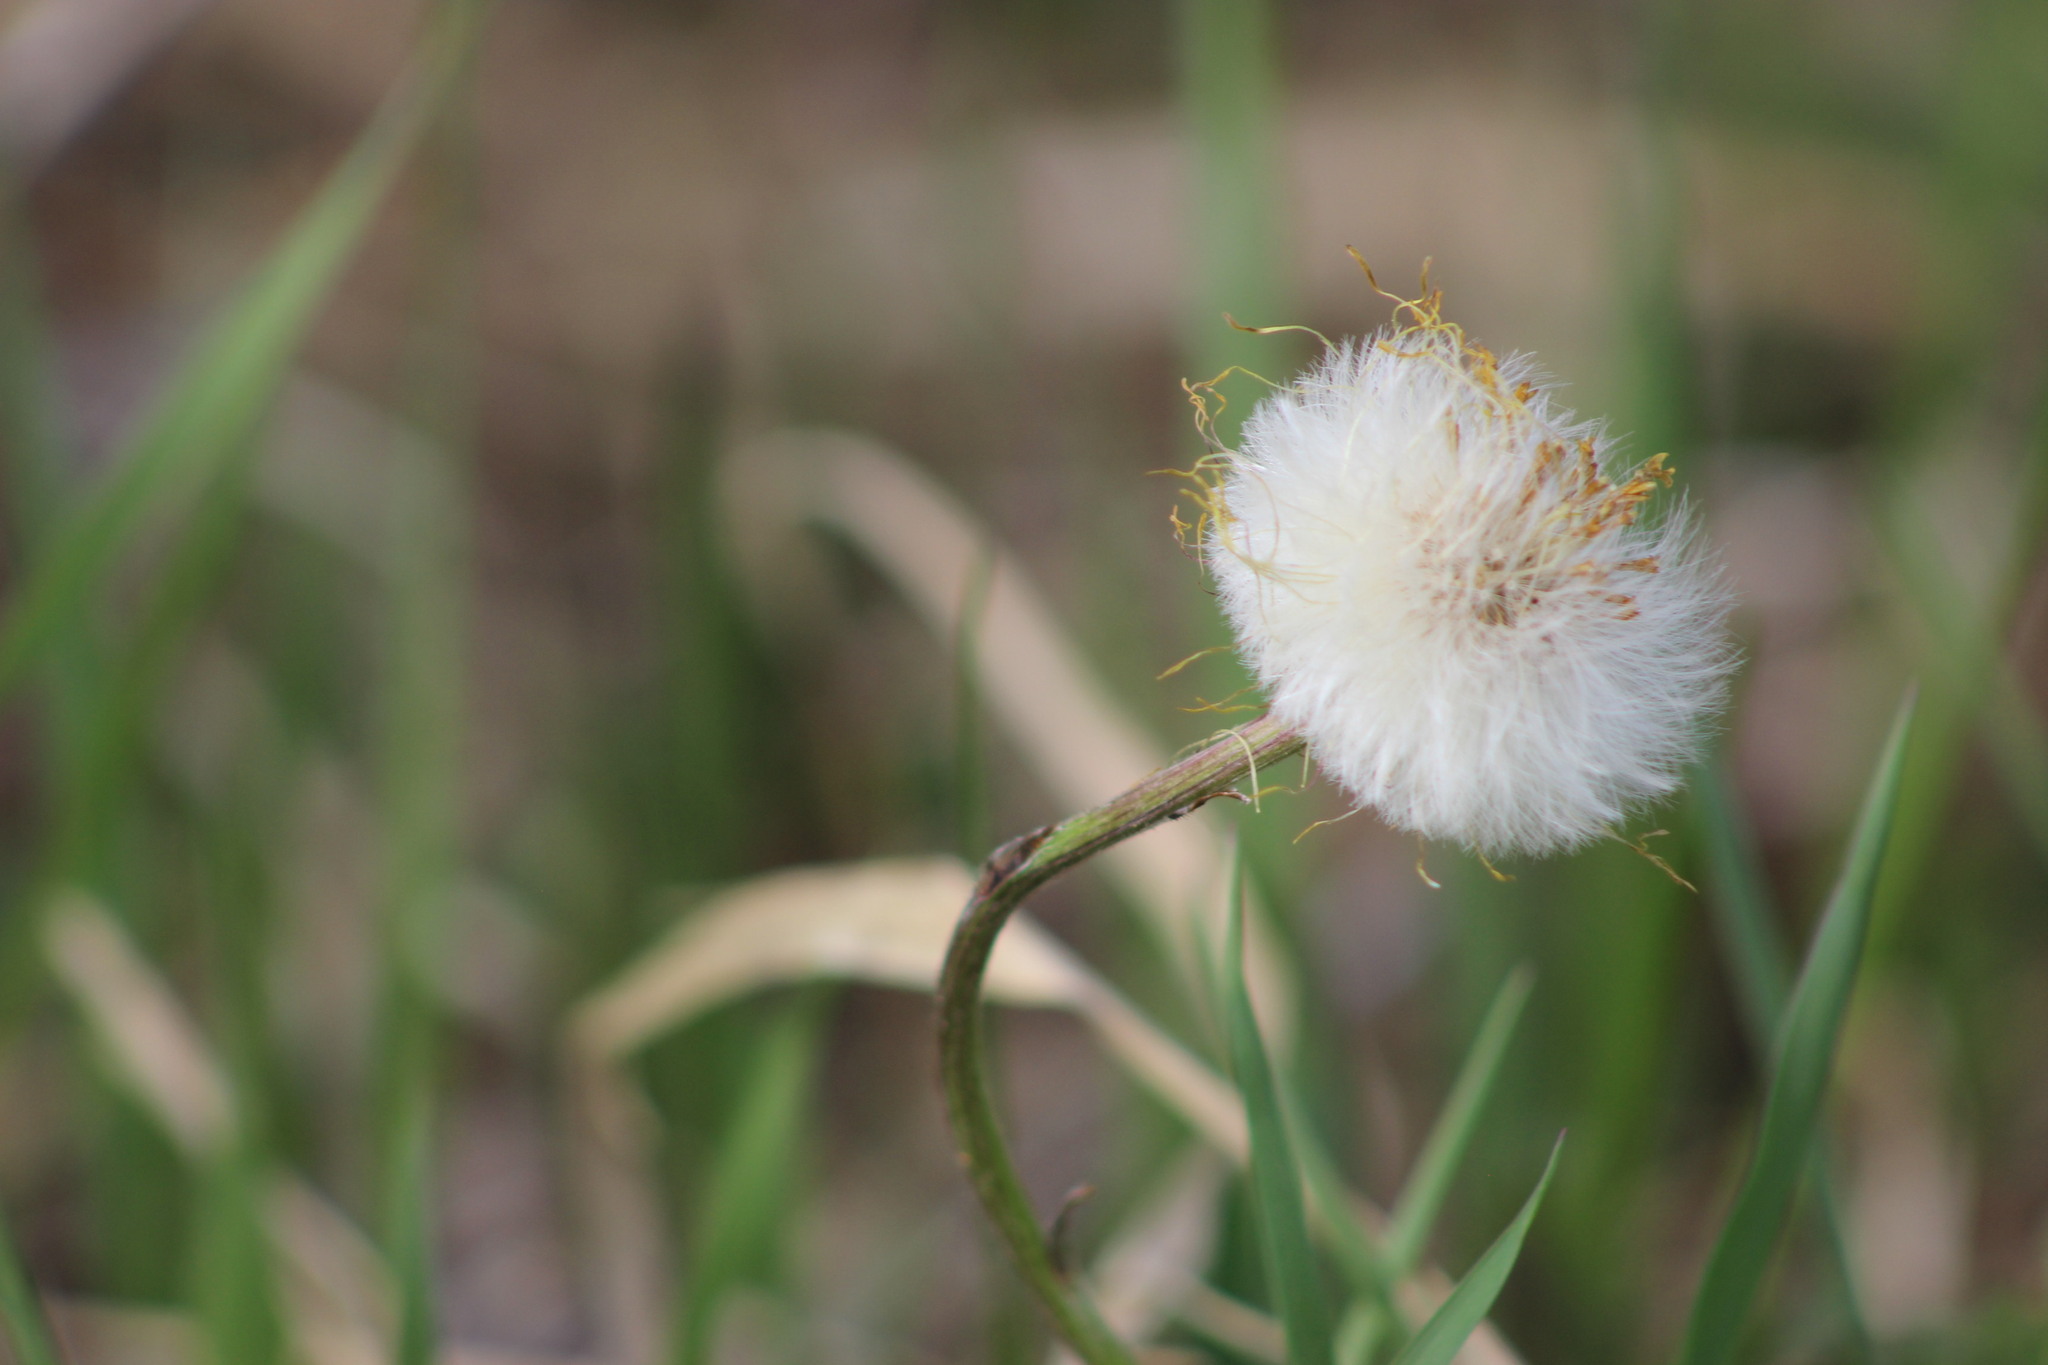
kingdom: Plantae
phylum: Tracheophyta
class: Magnoliopsida
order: Asterales
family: Asteraceae
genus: Tussilago
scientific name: Tussilago farfara
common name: Coltsfoot
